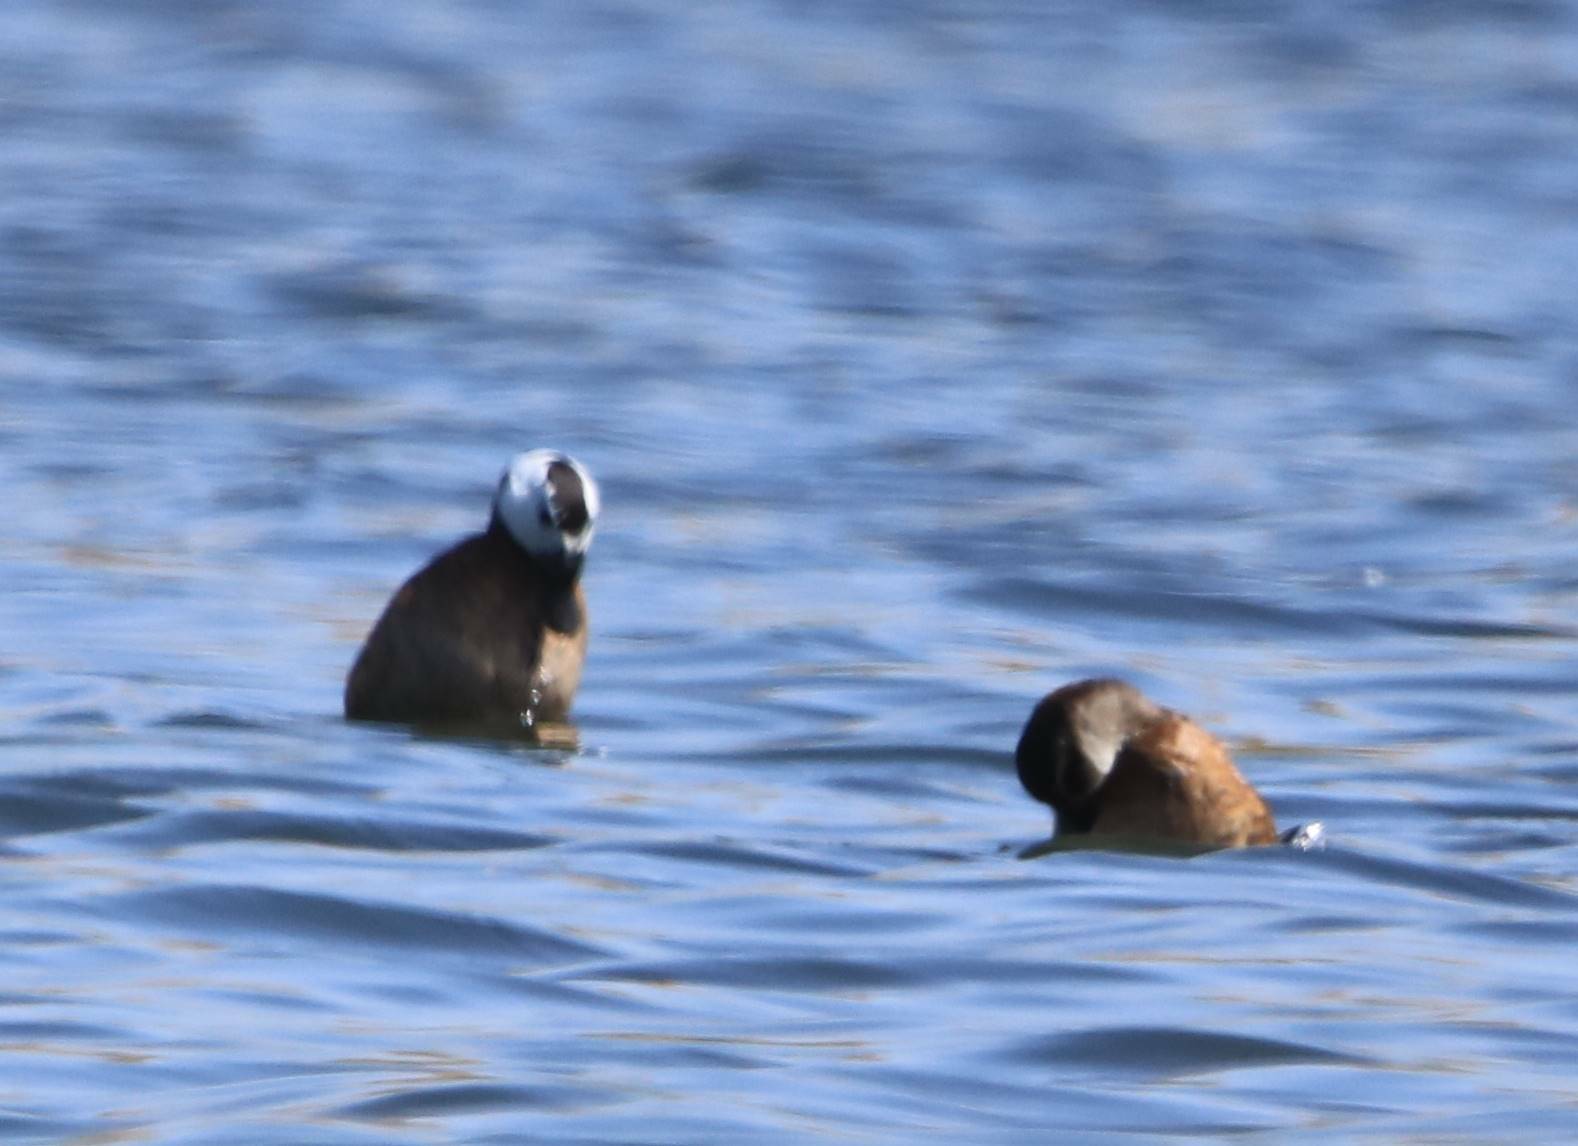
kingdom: Animalia
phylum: Chordata
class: Aves
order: Anseriformes
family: Anatidae
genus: Oxyura
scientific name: Oxyura leucocephala
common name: White-headed duck
